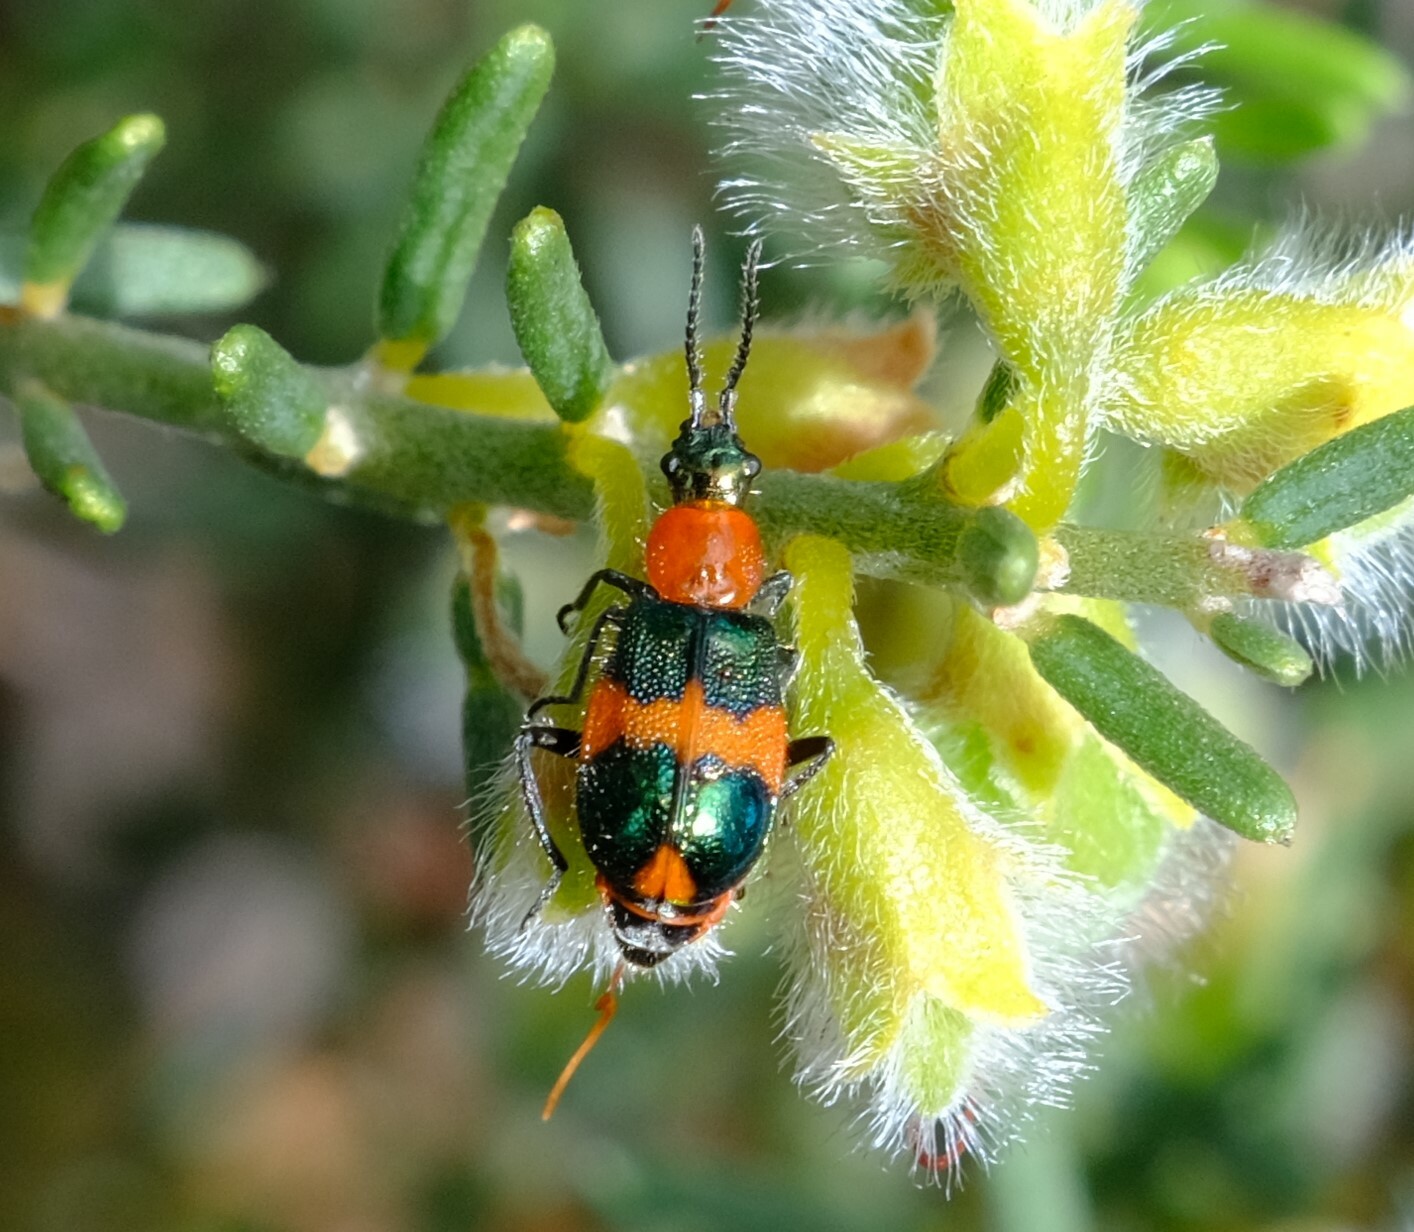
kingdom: Animalia
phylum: Arthropoda
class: Insecta
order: Coleoptera
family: Melyridae
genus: Dicranolaius
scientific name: Dicranolaius bellulus
